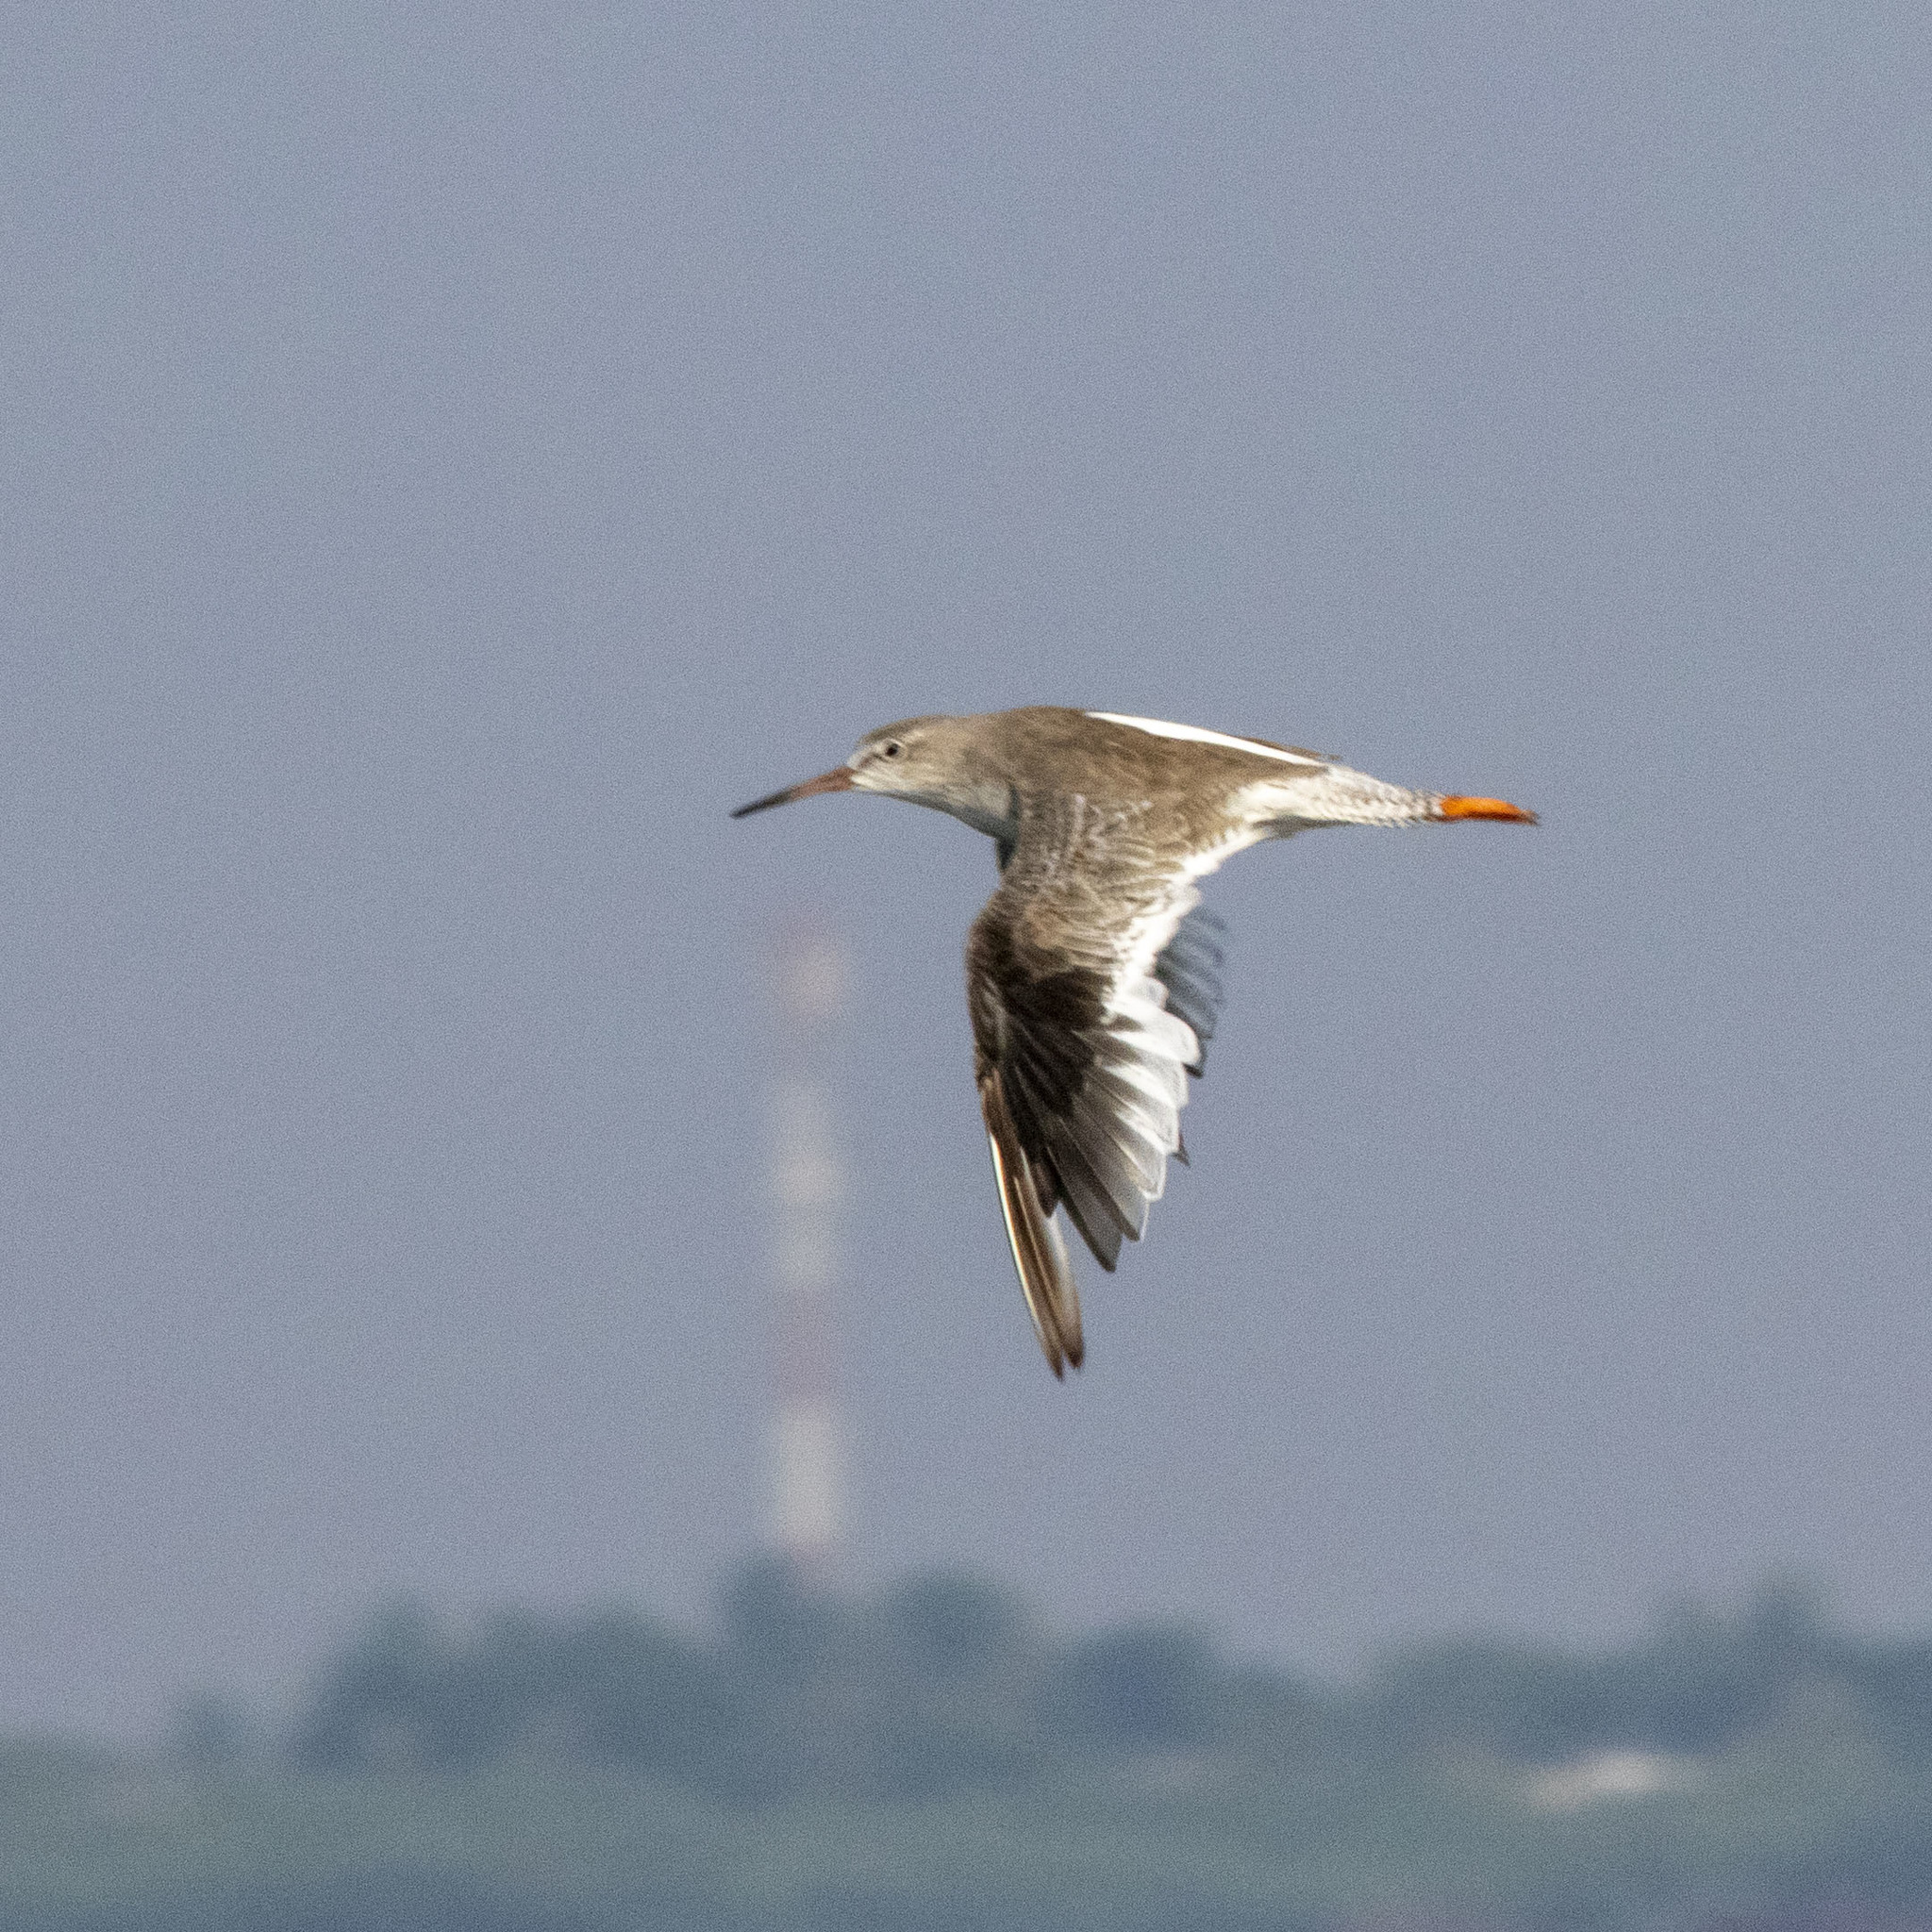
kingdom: Animalia
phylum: Chordata
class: Aves
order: Charadriiformes
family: Scolopacidae
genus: Tringa
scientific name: Tringa totanus
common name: Common redshank
